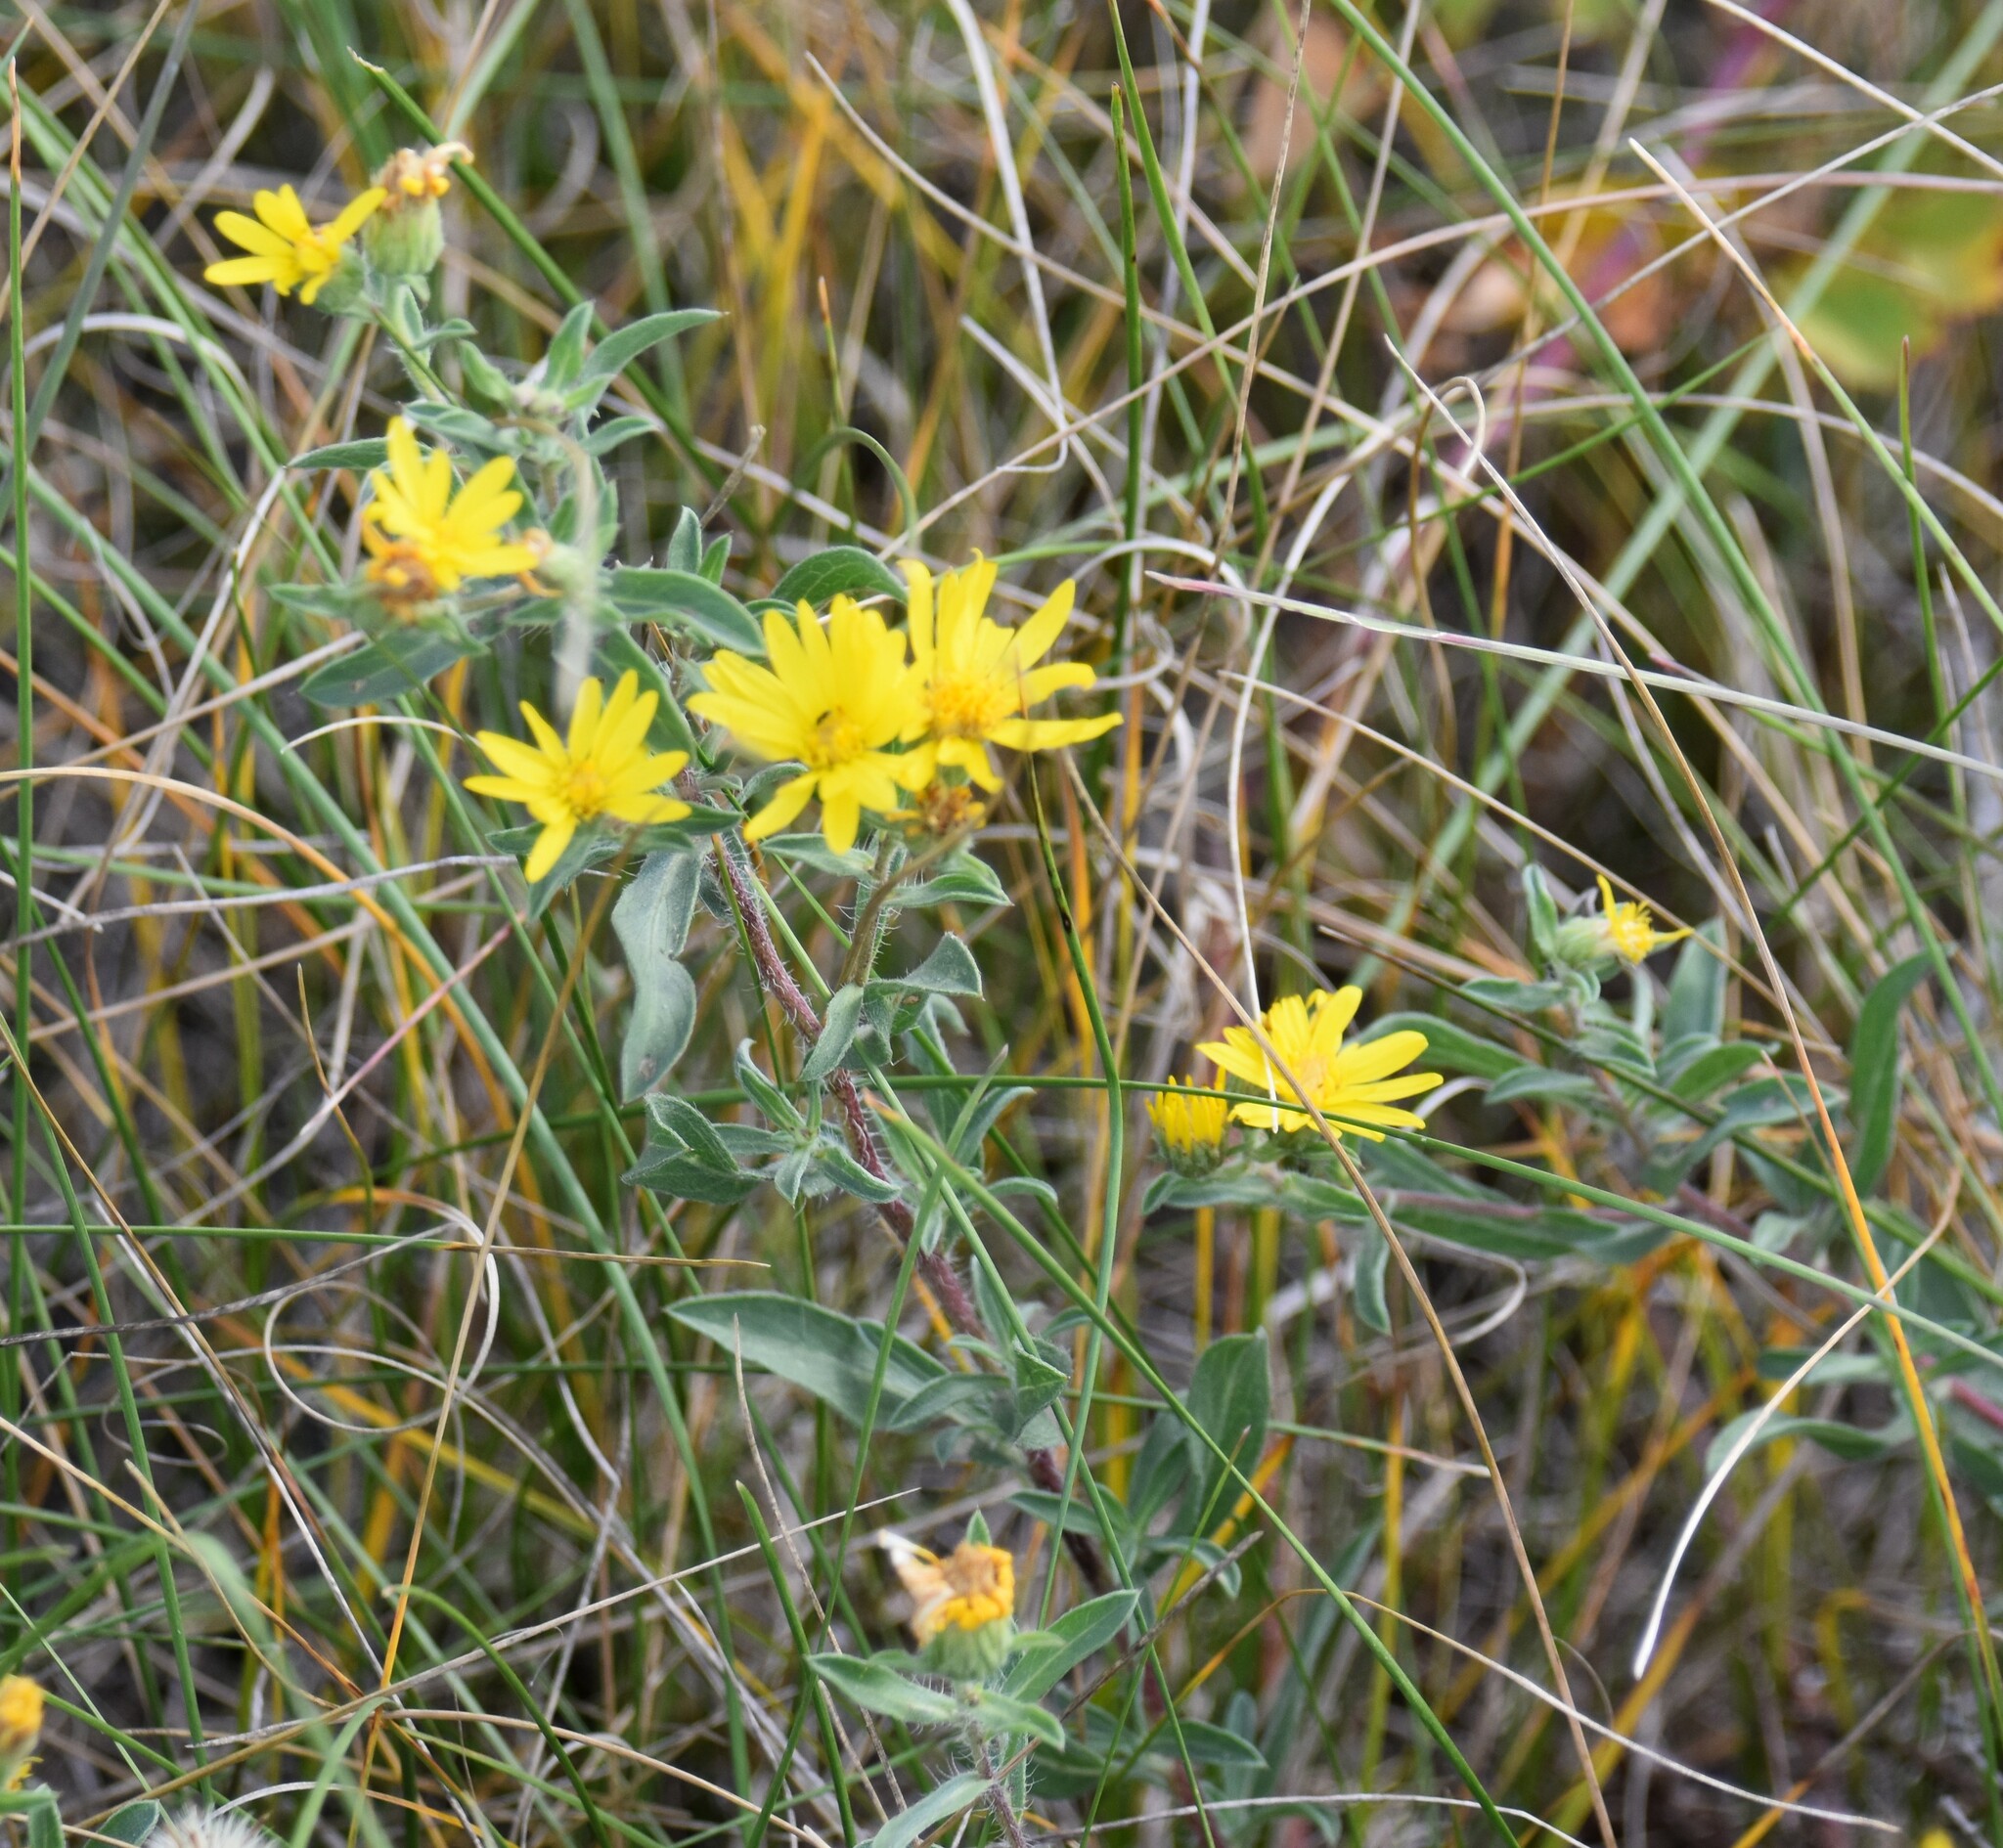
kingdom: Plantae
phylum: Tracheophyta
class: Magnoliopsida
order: Asterales
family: Asteraceae
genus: Heterotheca
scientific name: Heterotheca villosa
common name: Hairy false goldenaster
